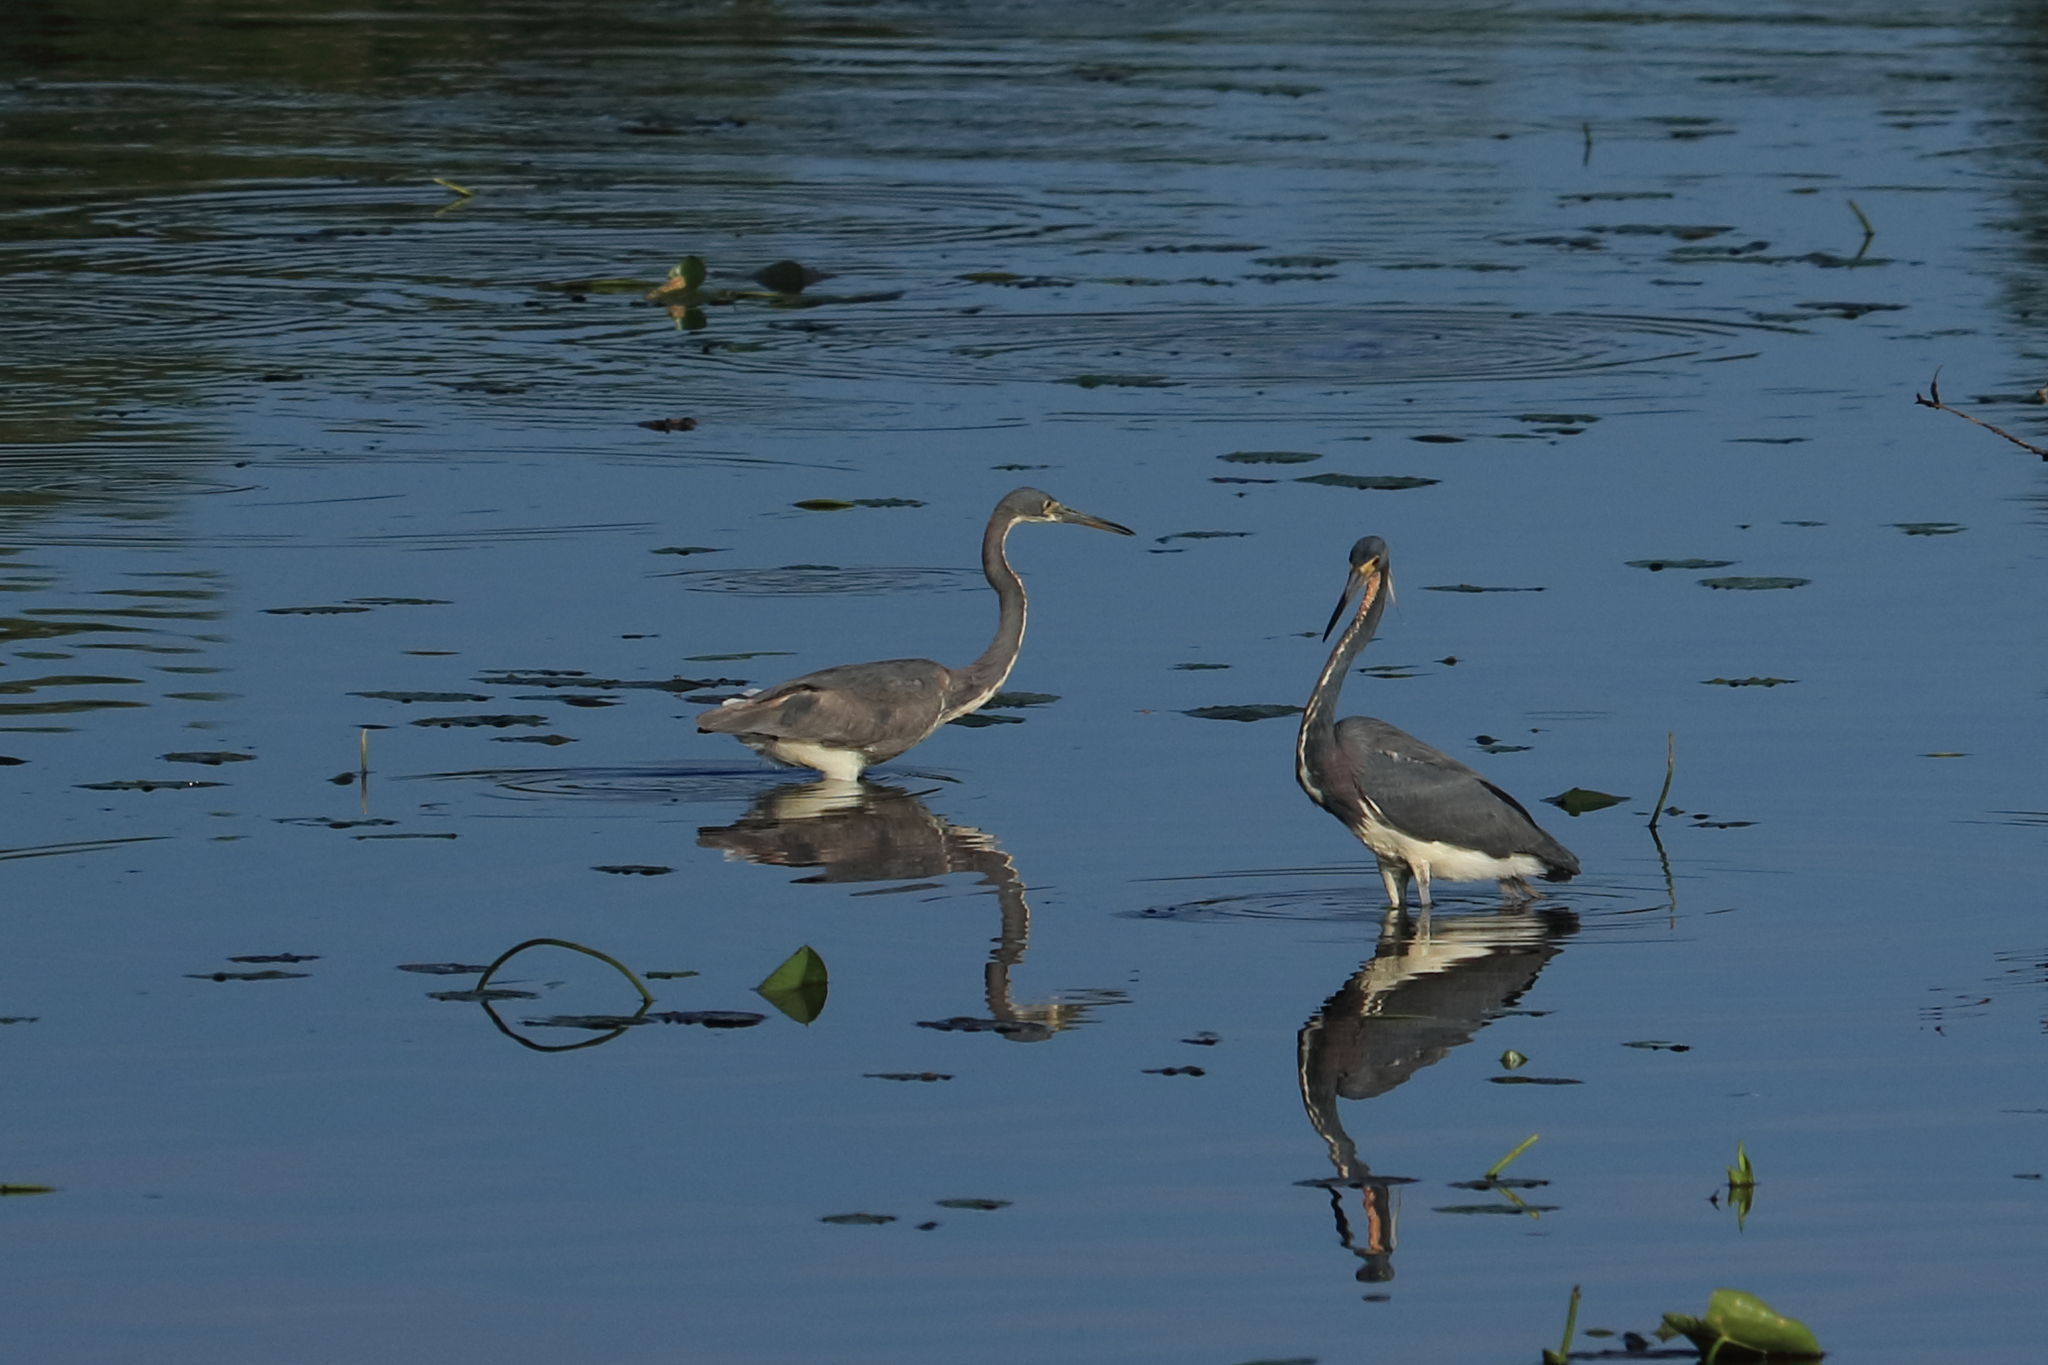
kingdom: Animalia
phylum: Chordata
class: Aves
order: Pelecaniformes
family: Ardeidae
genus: Egretta
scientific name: Egretta tricolor
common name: Tricolored heron
